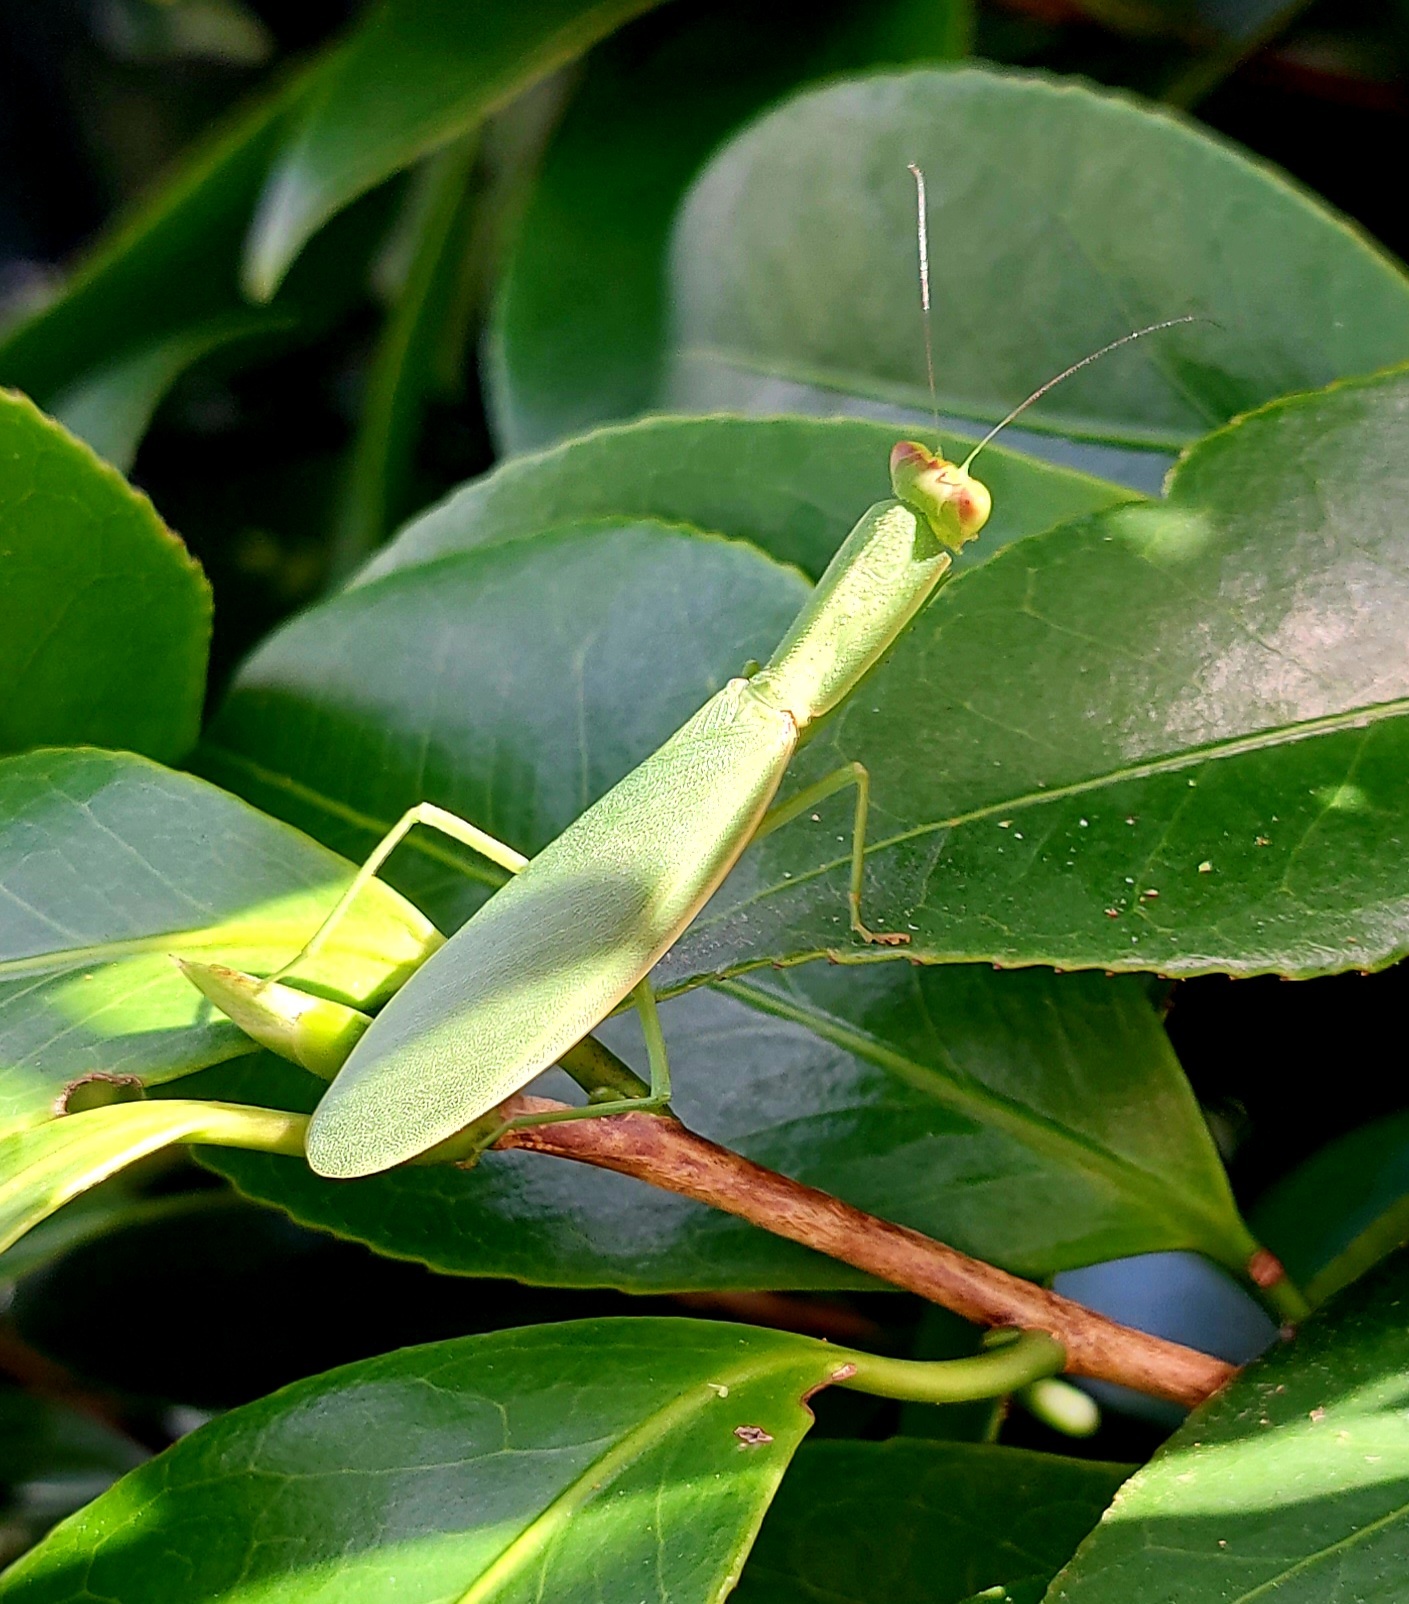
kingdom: Animalia
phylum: Arthropoda
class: Insecta
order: Mantodea
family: Mantidae
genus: Orthodera
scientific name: Orthodera novaezealandiae
